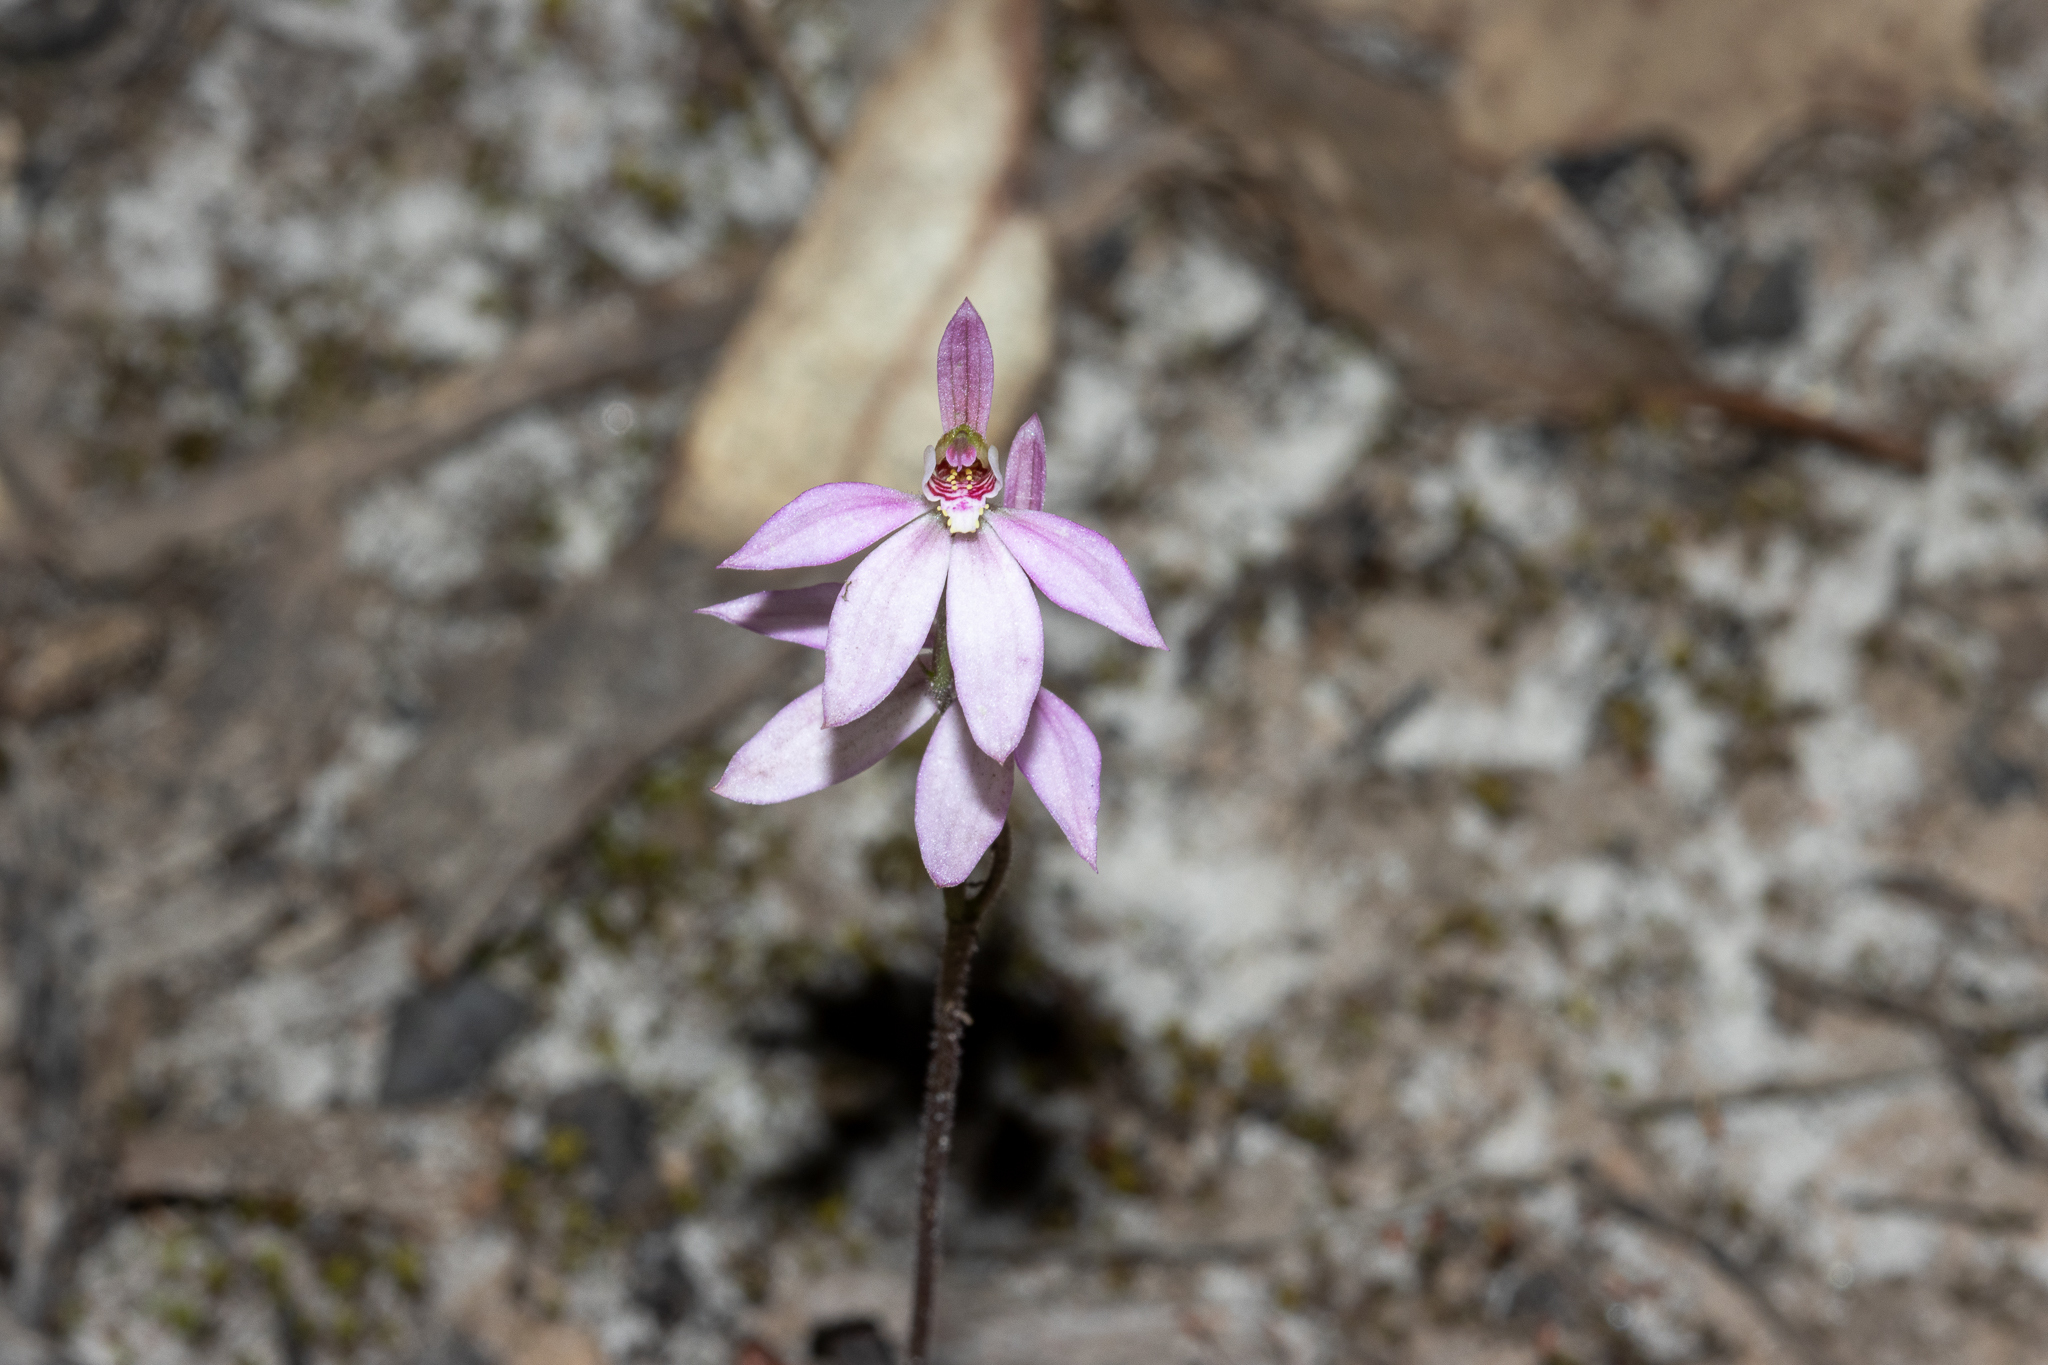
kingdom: Plantae
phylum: Tracheophyta
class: Liliopsida
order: Asparagales
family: Orchidaceae
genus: Caladenia
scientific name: Caladenia carnea
